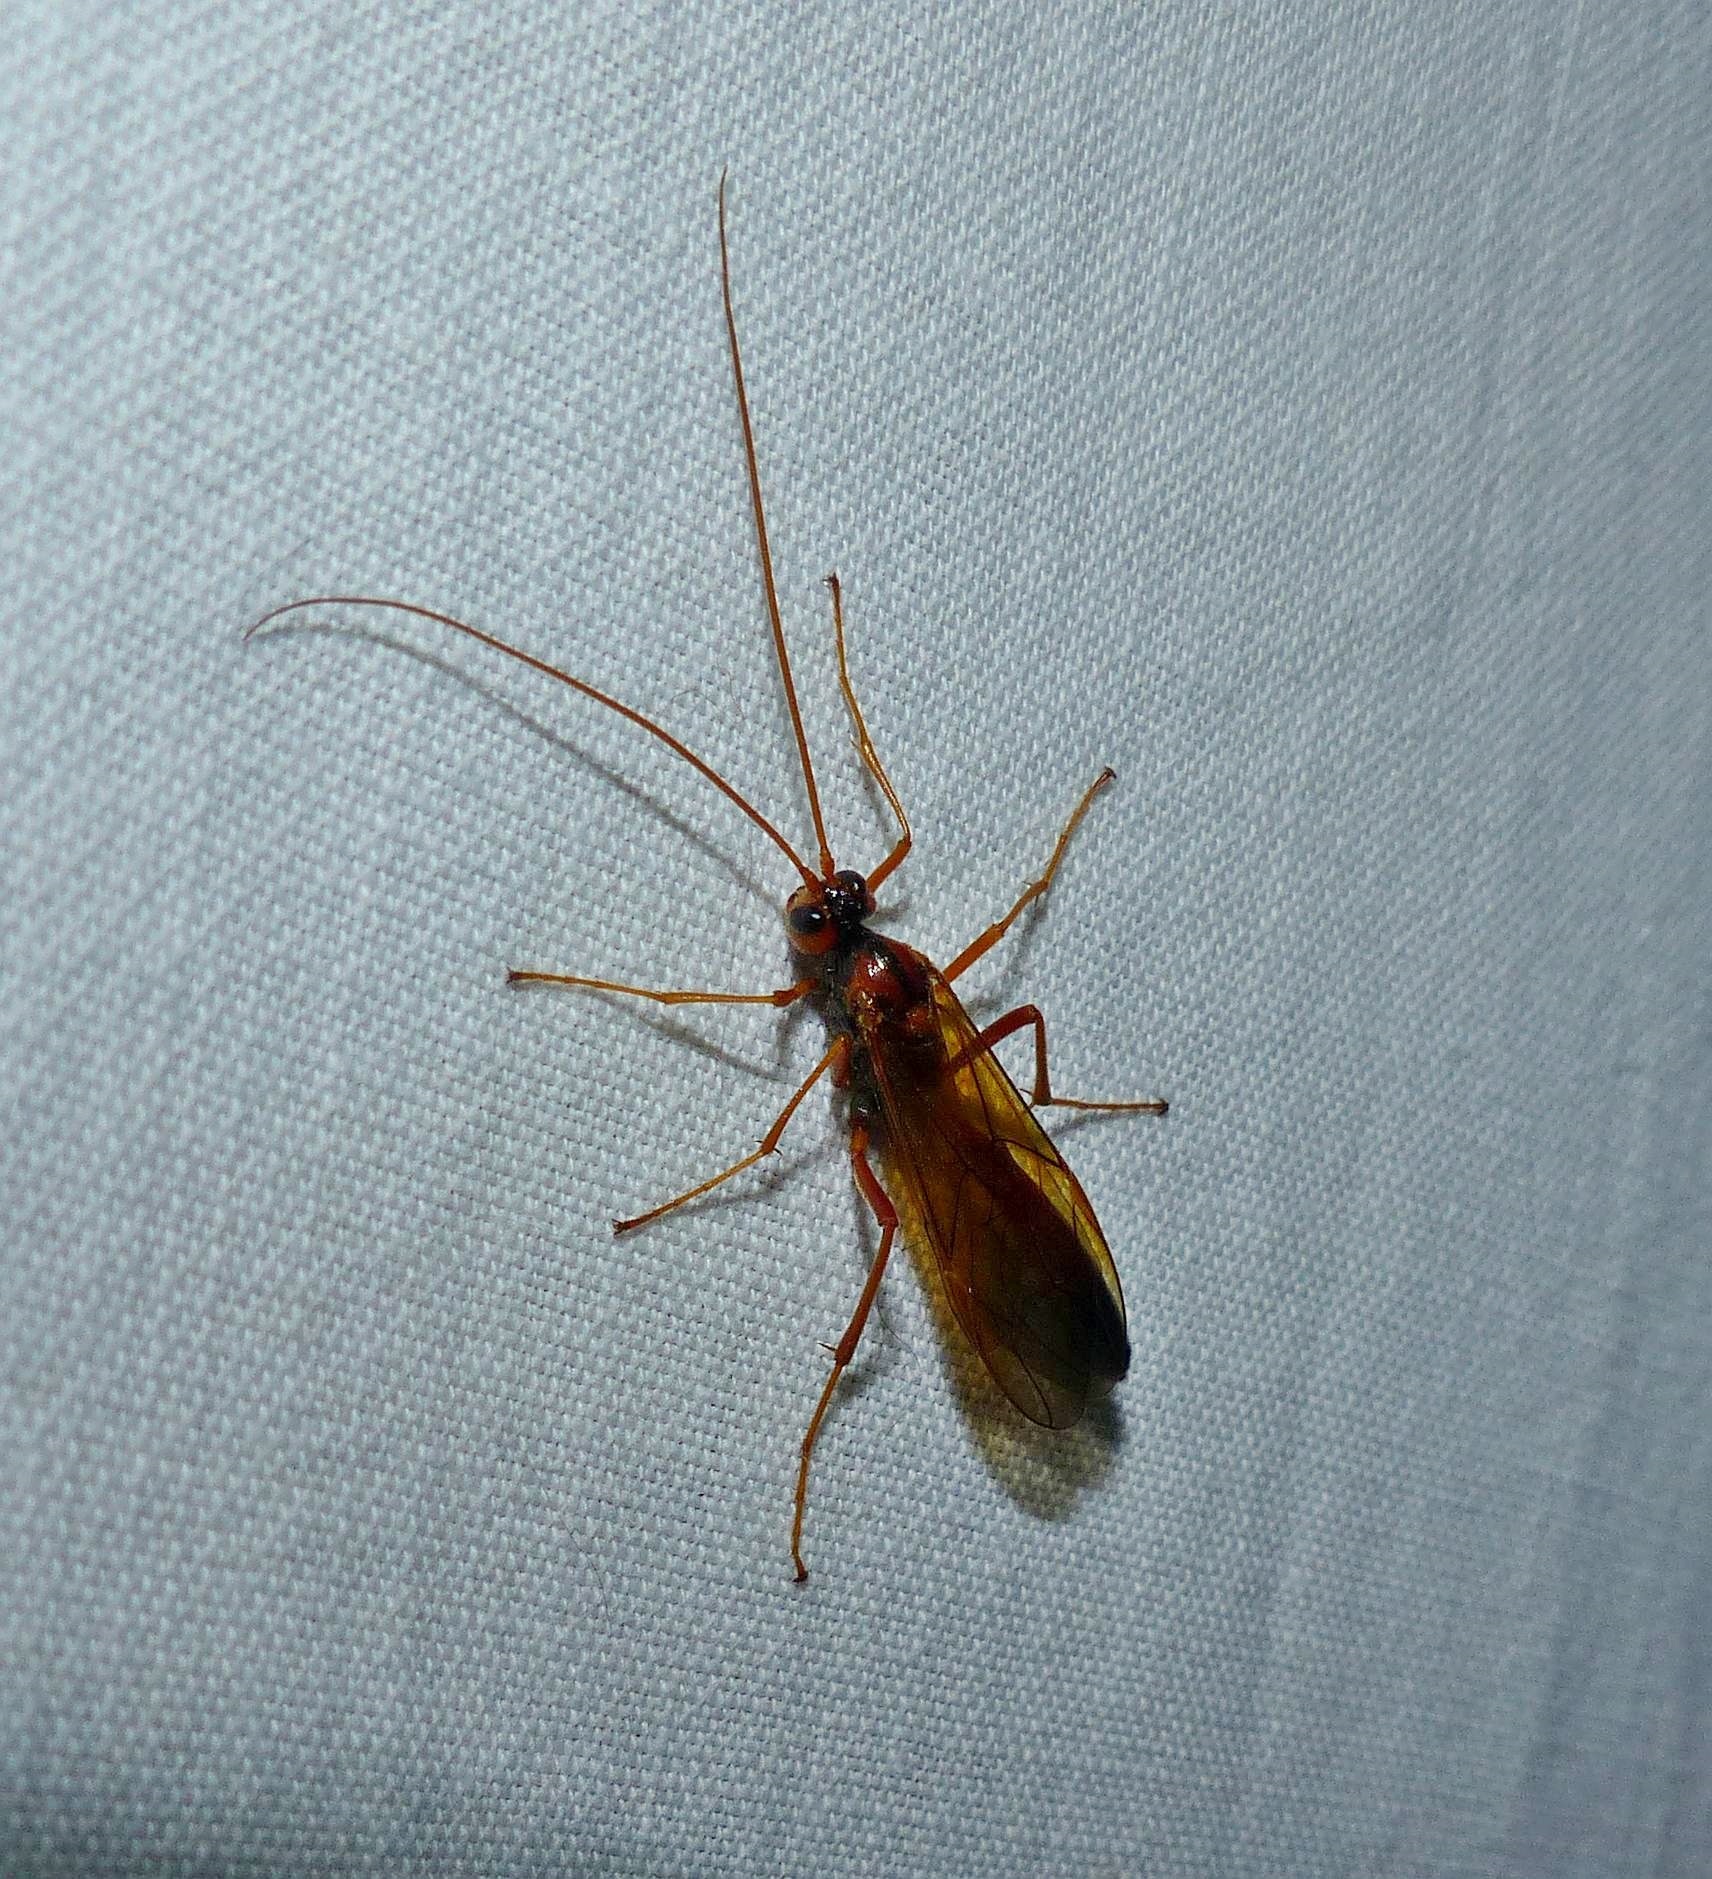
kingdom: Animalia
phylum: Arthropoda
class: Insecta
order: Hymenoptera
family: Ichneumonidae
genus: Opheltes
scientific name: Opheltes glaucopterus
